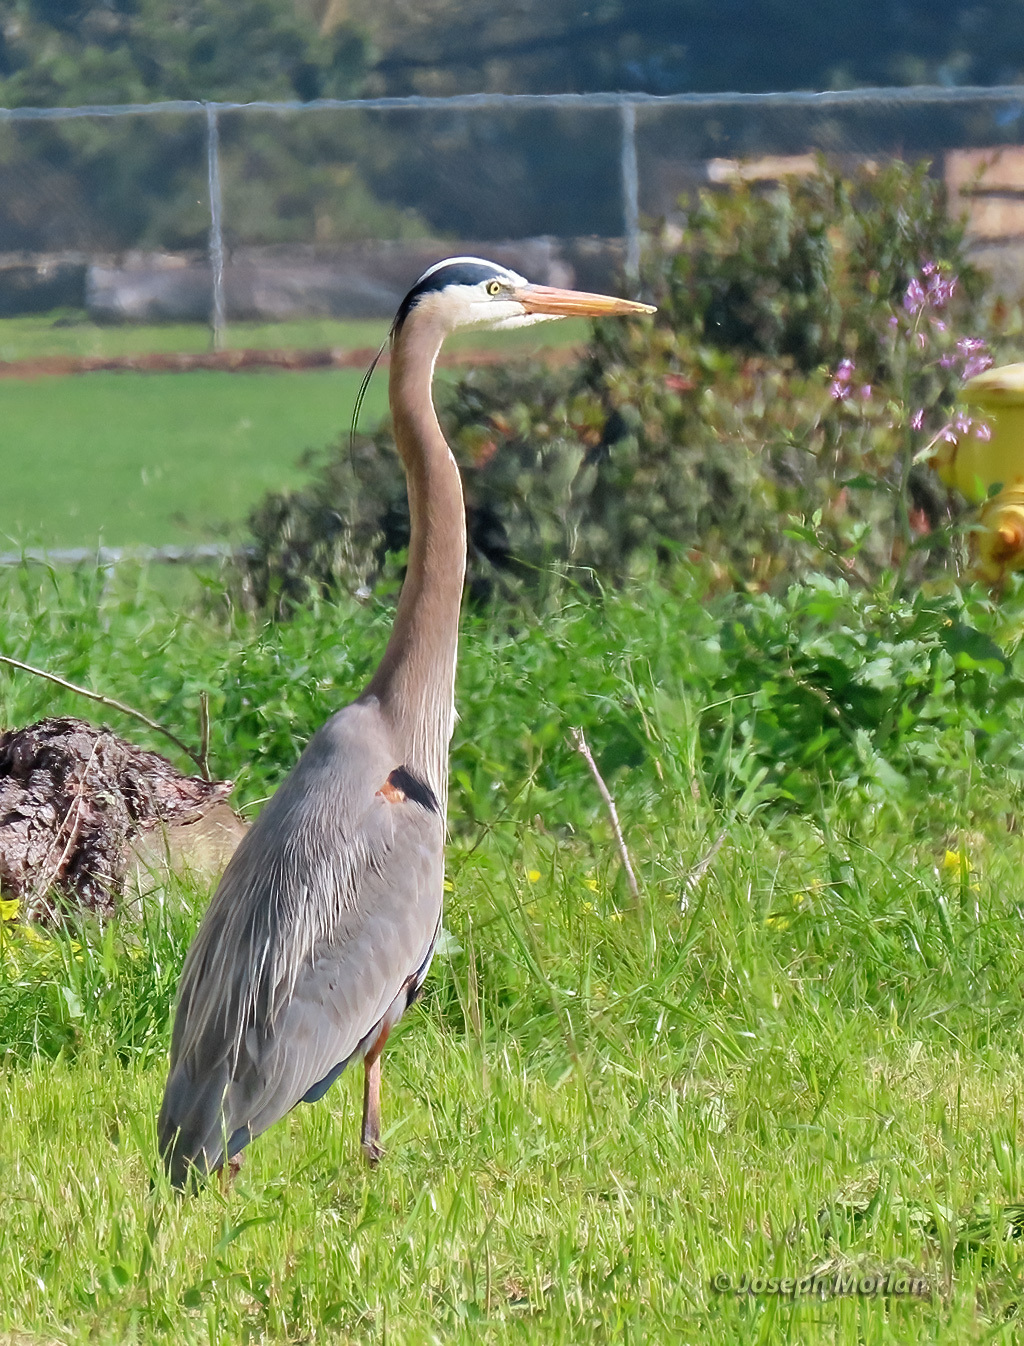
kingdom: Animalia
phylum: Chordata
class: Aves
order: Pelecaniformes
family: Ardeidae
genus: Ardea
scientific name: Ardea herodias
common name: Great blue heron
